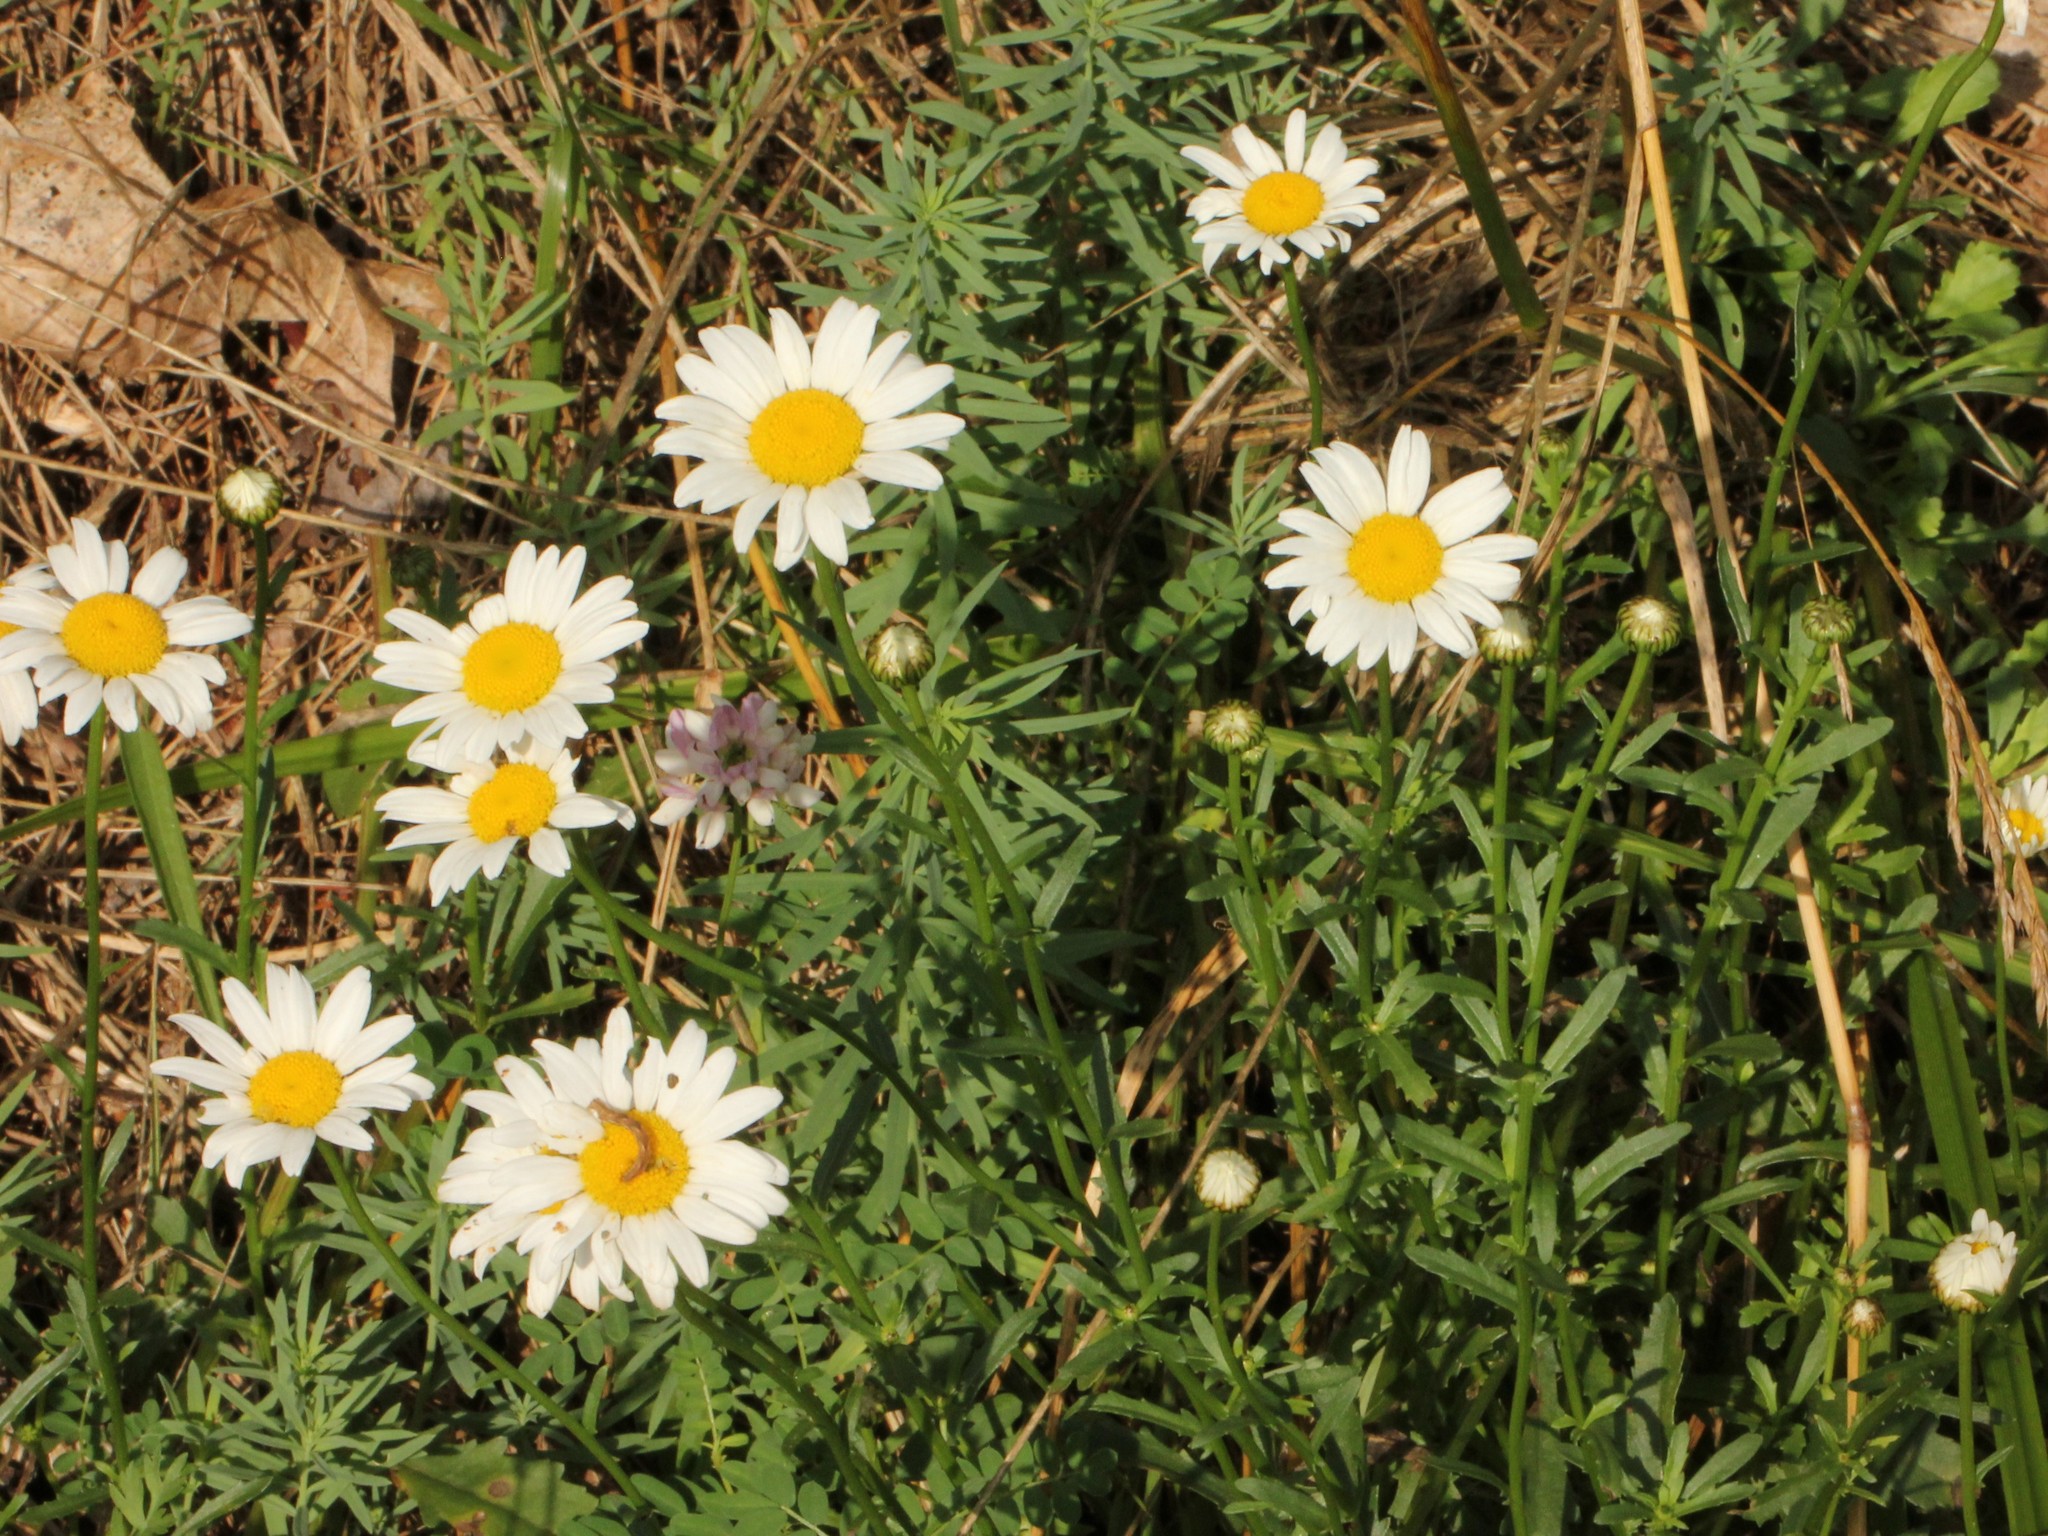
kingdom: Plantae
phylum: Tracheophyta
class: Magnoliopsida
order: Asterales
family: Asteraceae
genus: Leucanthemum
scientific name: Leucanthemum vulgare
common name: Oxeye daisy
